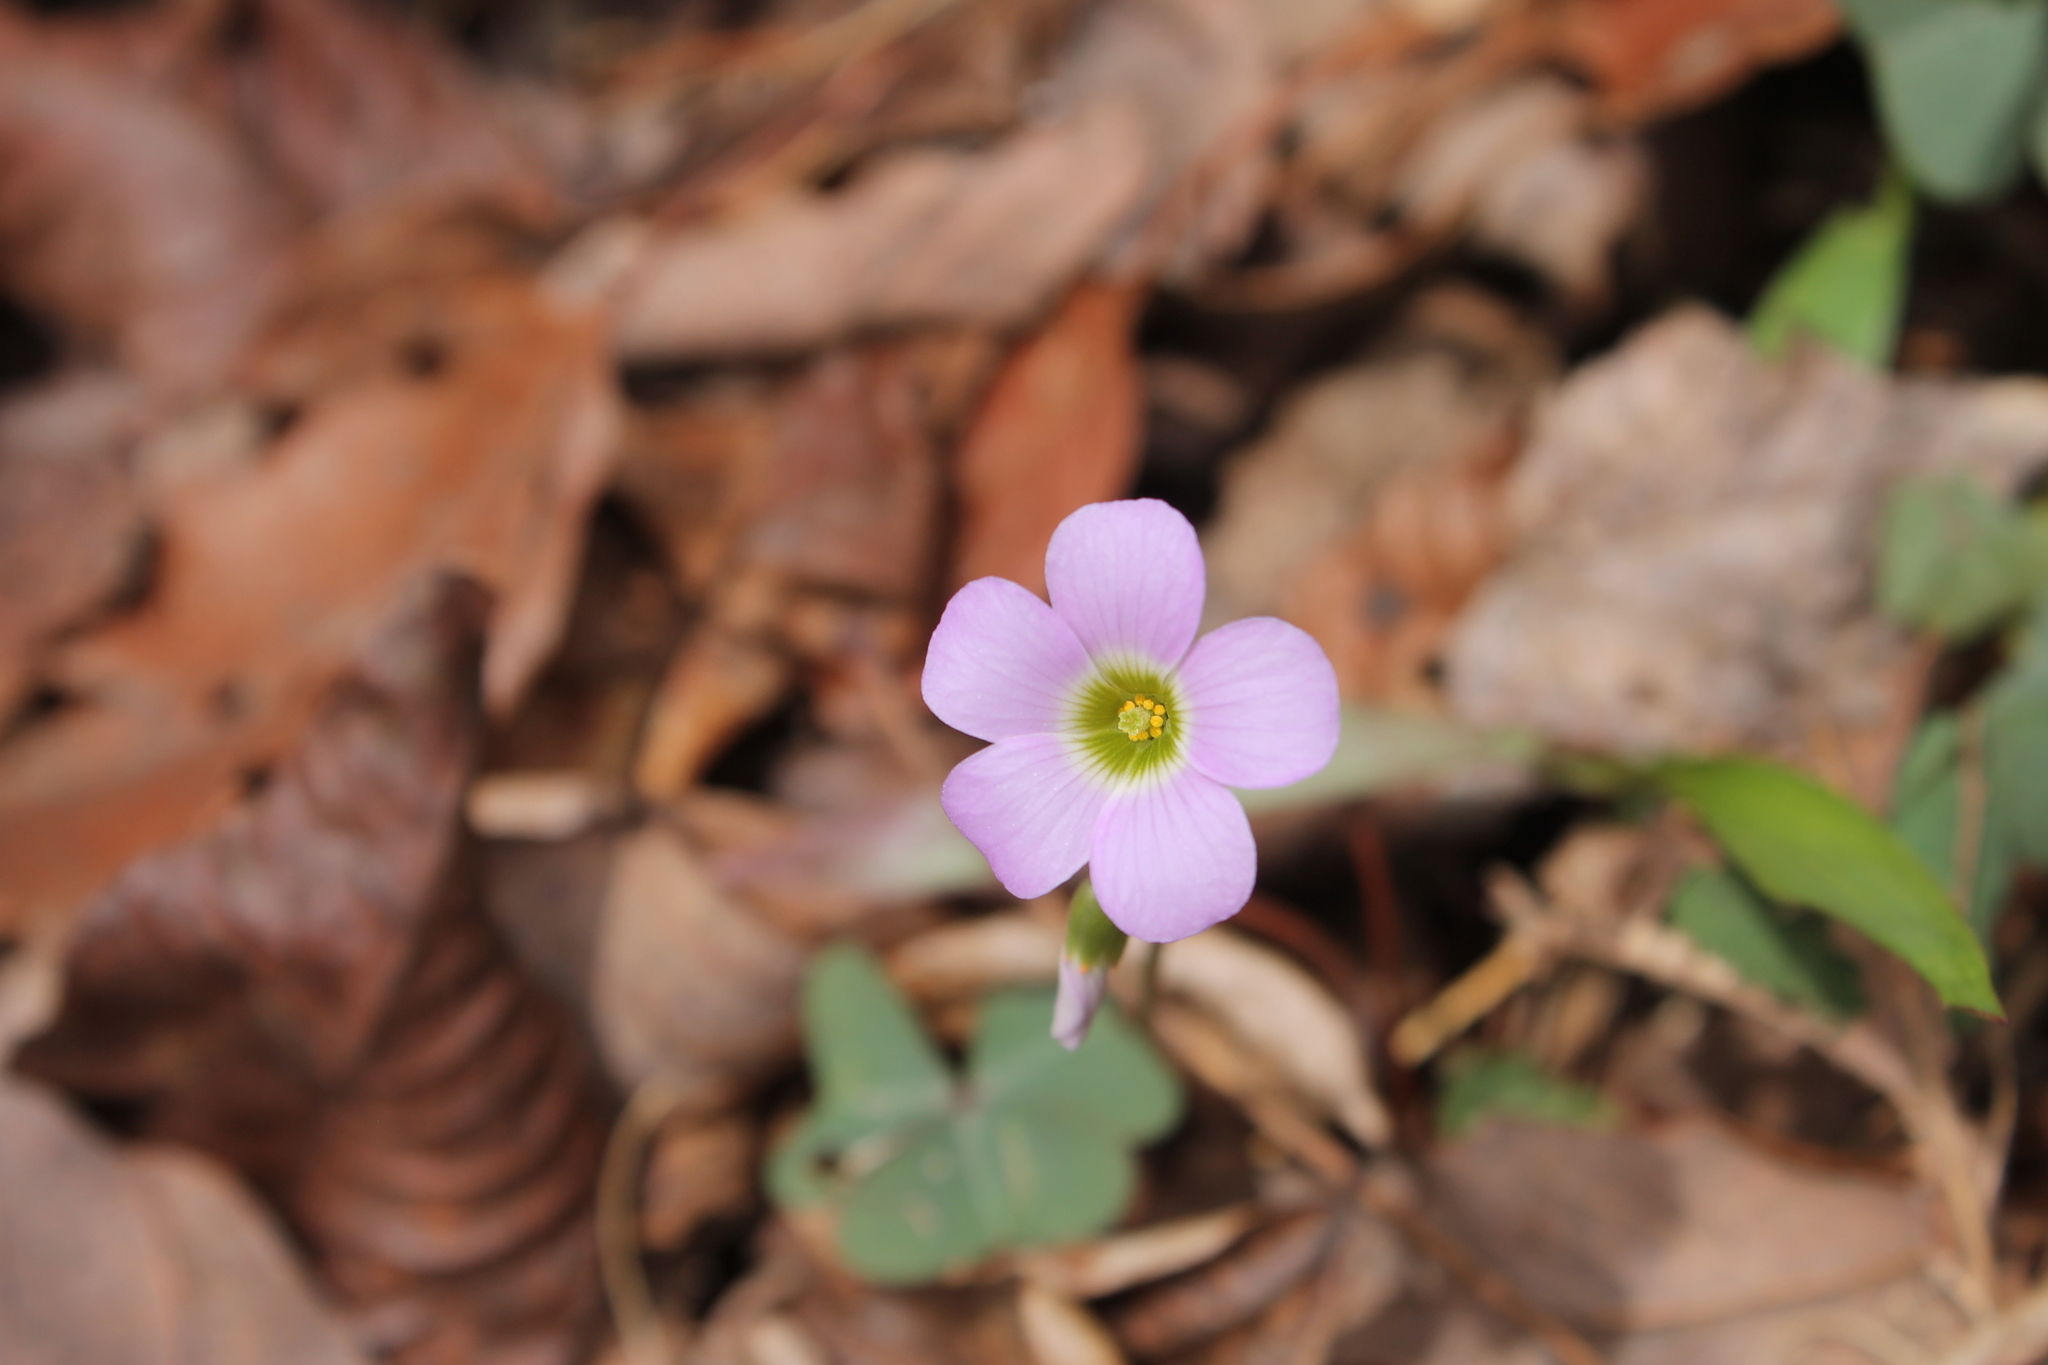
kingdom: Plantae
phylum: Tracheophyta
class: Magnoliopsida
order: Oxalidales
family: Oxalidaceae
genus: Oxalis
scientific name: Oxalis violacea
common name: Violet wood-sorrel
